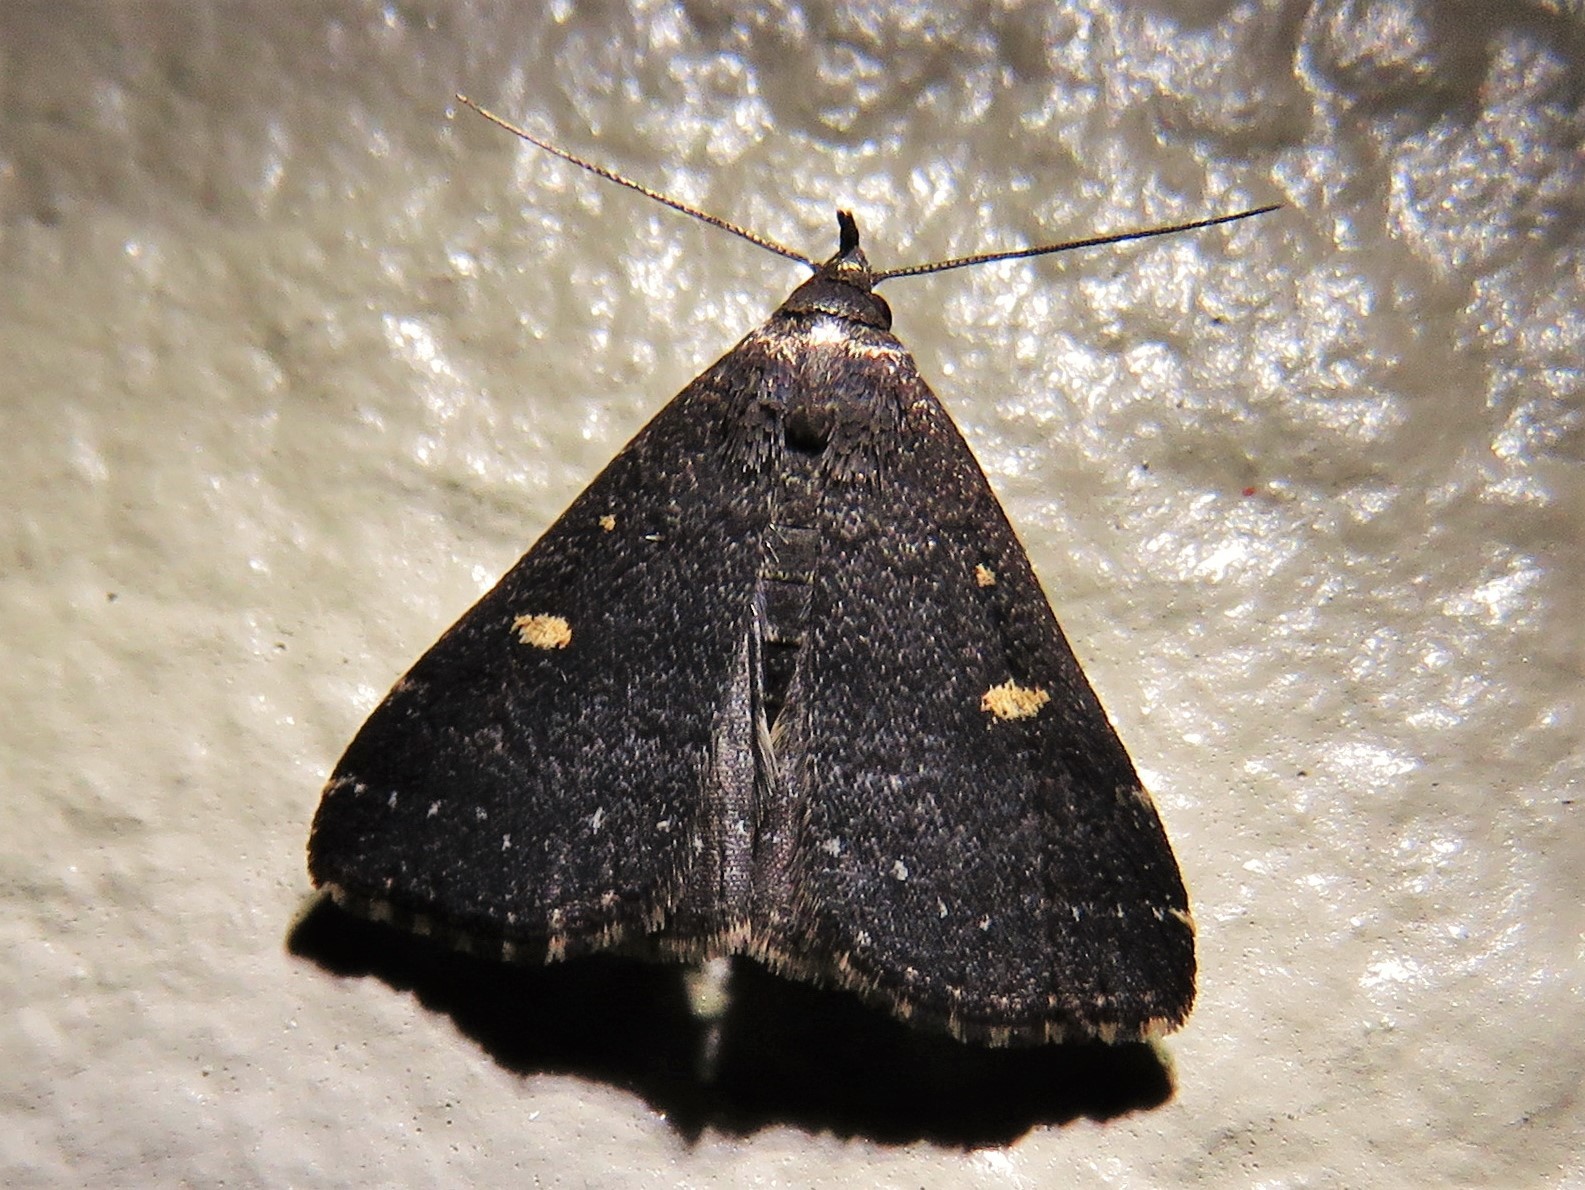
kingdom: Animalia
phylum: Arthropoda
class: Insecta
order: Lepidoptera
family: Erebidae
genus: Tetanolita
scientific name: Tetanolita mynesalis
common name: Smoky tetanolita moth
